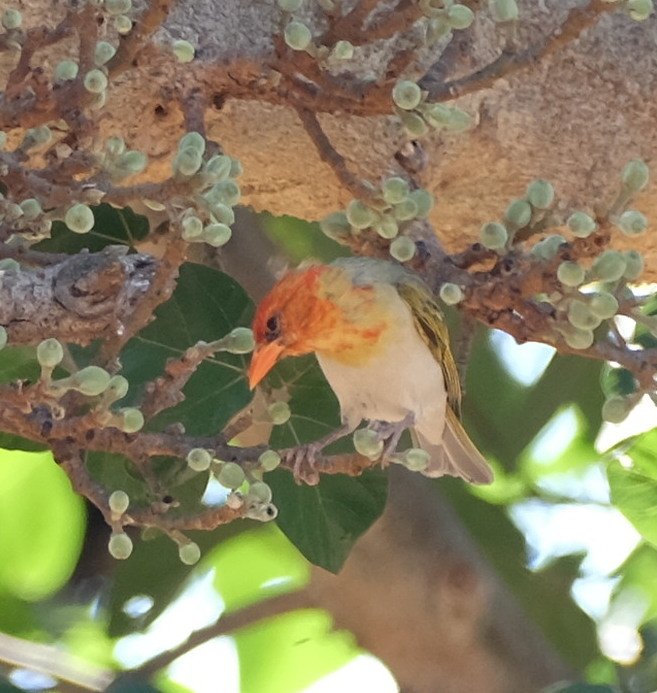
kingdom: Animalia
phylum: Chordata
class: Aves
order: Passeriformes
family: Ploceidae
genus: Anaplectes
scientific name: Anaplectes rubriceps
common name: Red-headed weaver
